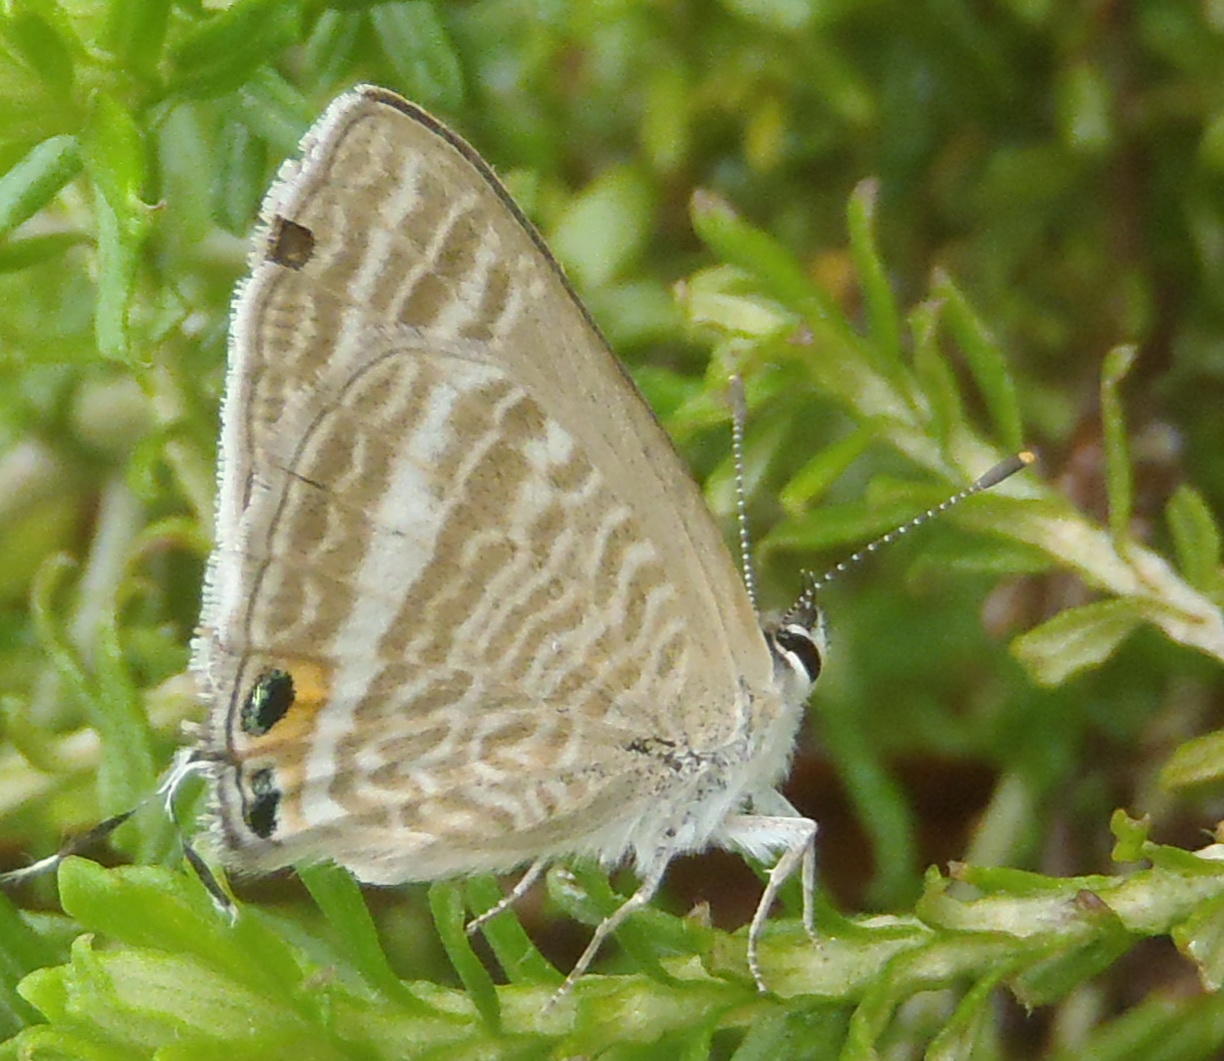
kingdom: Animalia
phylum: Arthropoda
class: Insecta
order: Lepidoptera
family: Lycaenidae
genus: Lampides
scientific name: Lampides boeticus
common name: Long-tailed blue
